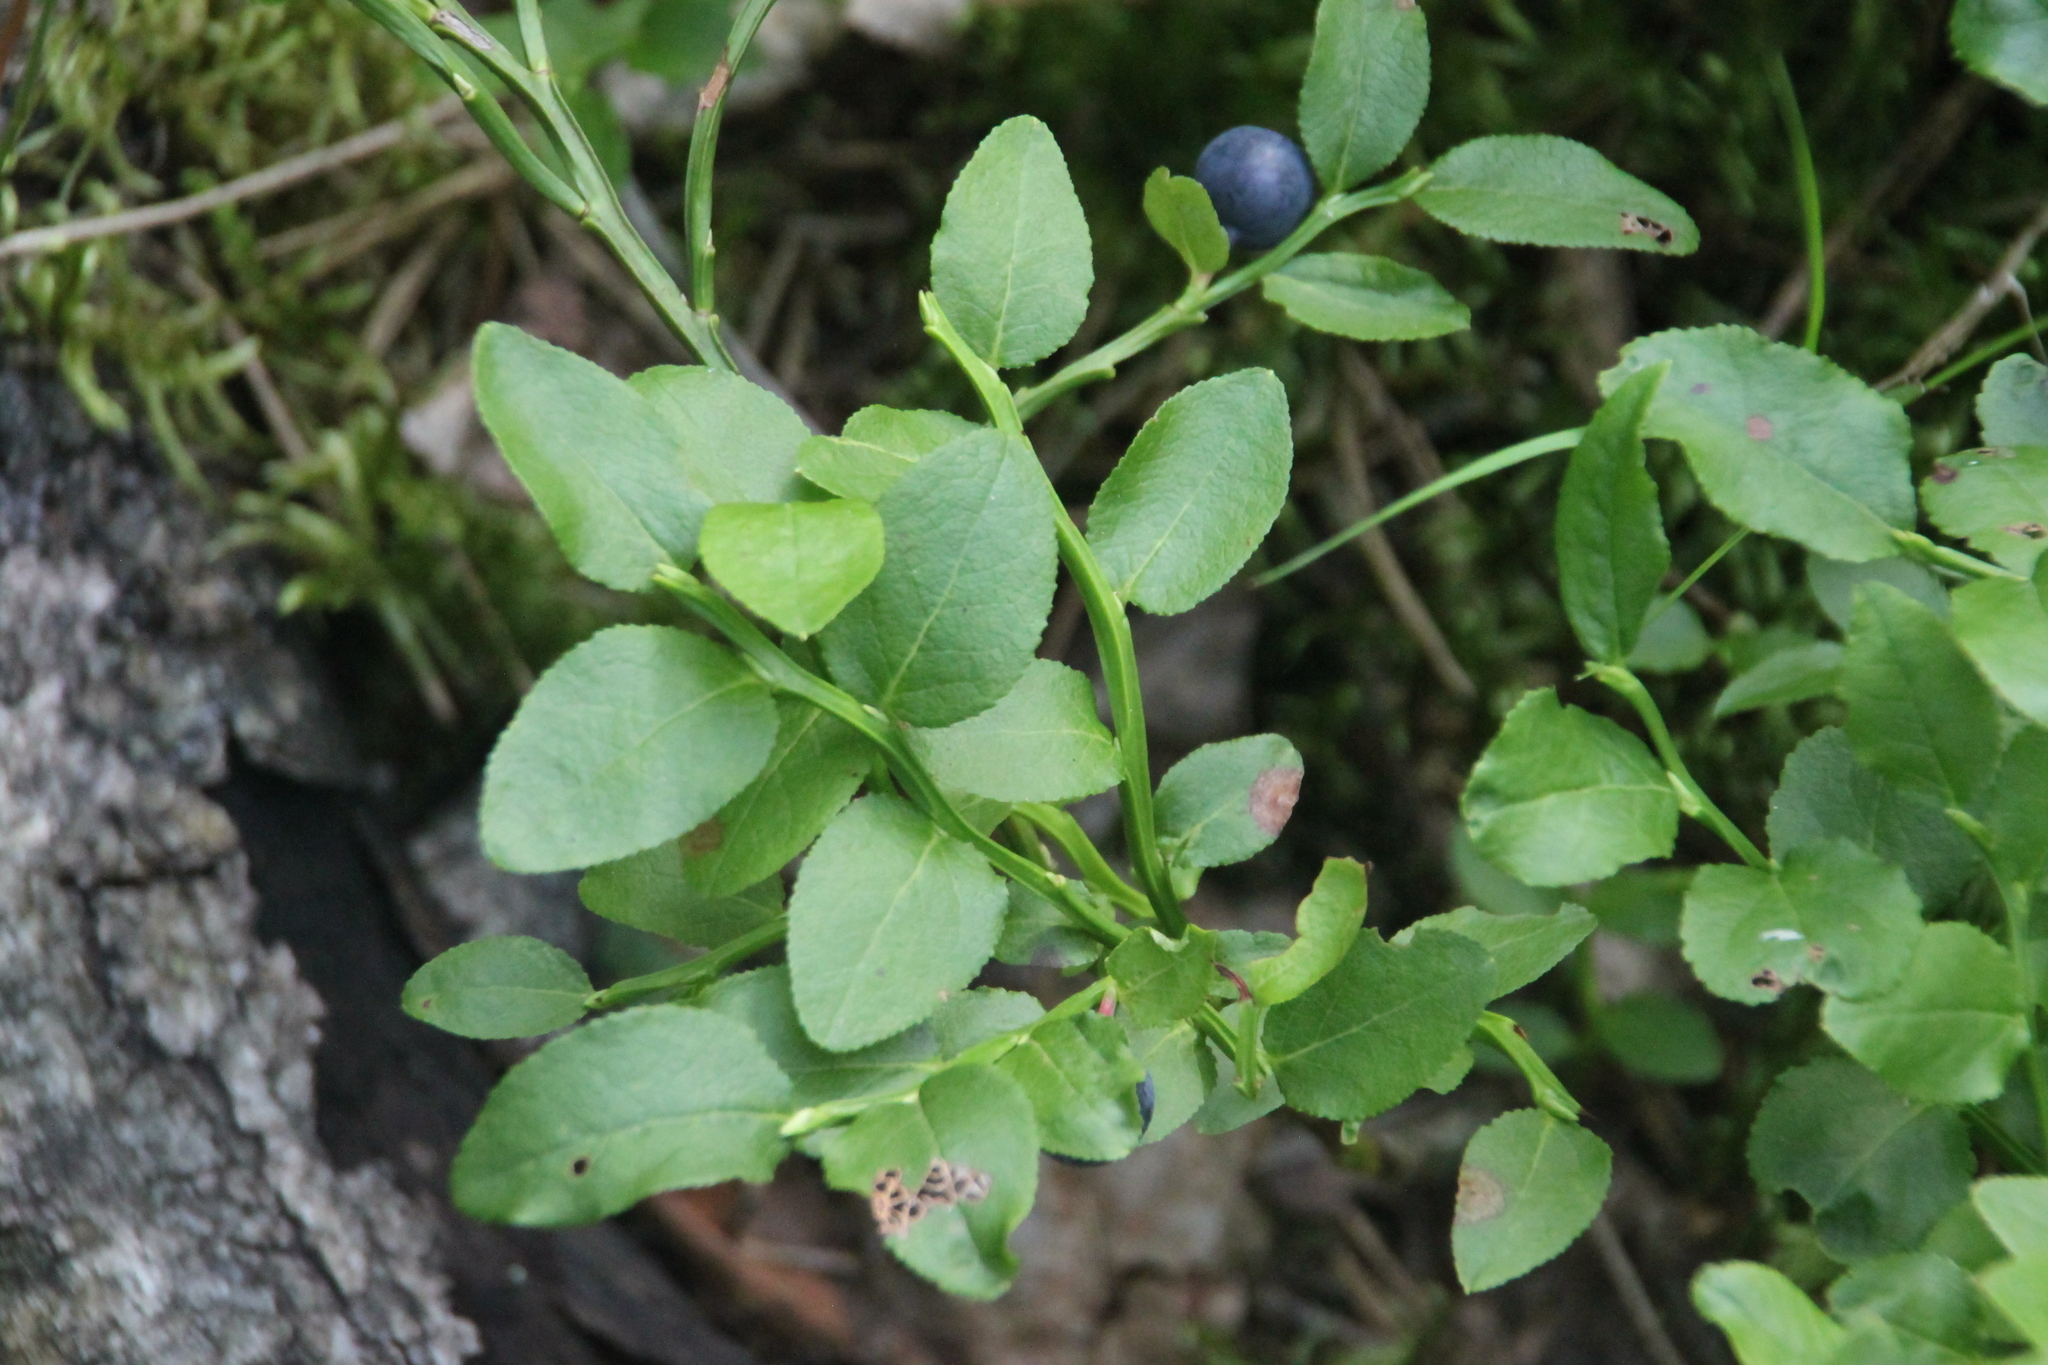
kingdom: Plantae
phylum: Tracheophyta
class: Magnoliopsida
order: Ericales
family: Ericaceae
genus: Vaccinium
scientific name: Vaccinium myrtillus
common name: Bilberry
